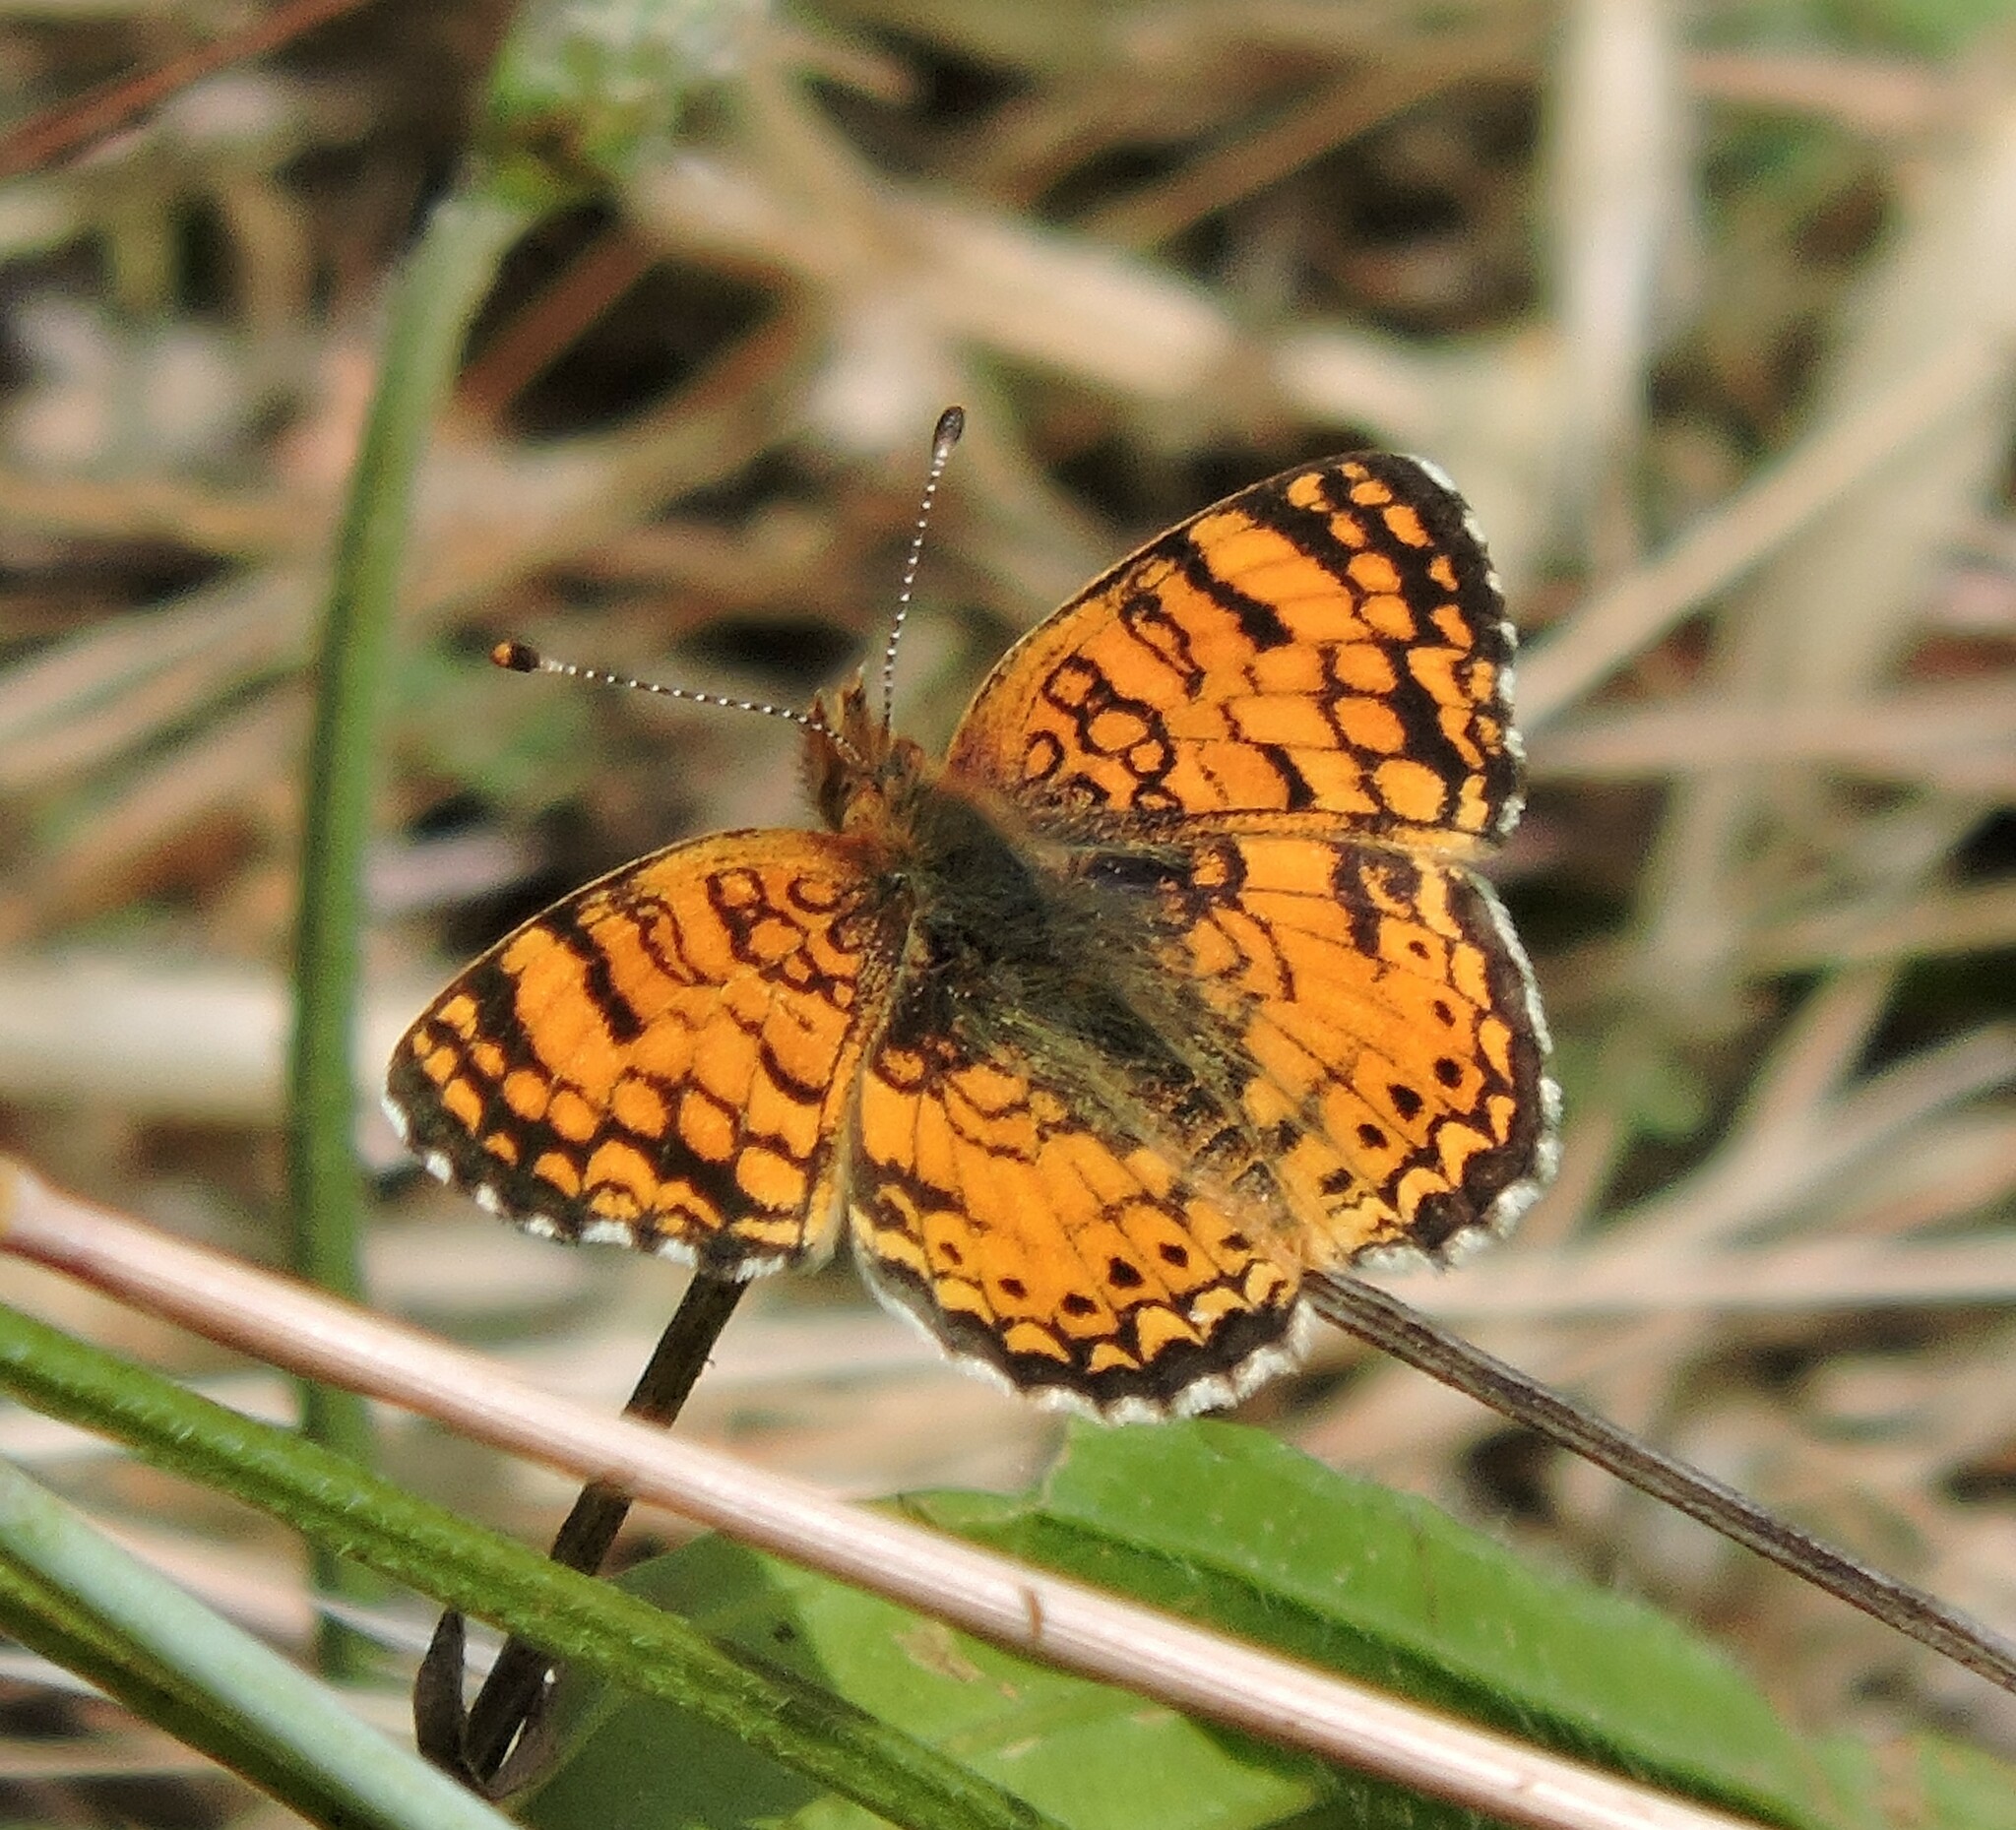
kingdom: Animalia
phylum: Arthropoda
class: Insecta
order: Lepidoptera
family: Nymphalidae
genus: Eresia
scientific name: Eresia aveyrona
